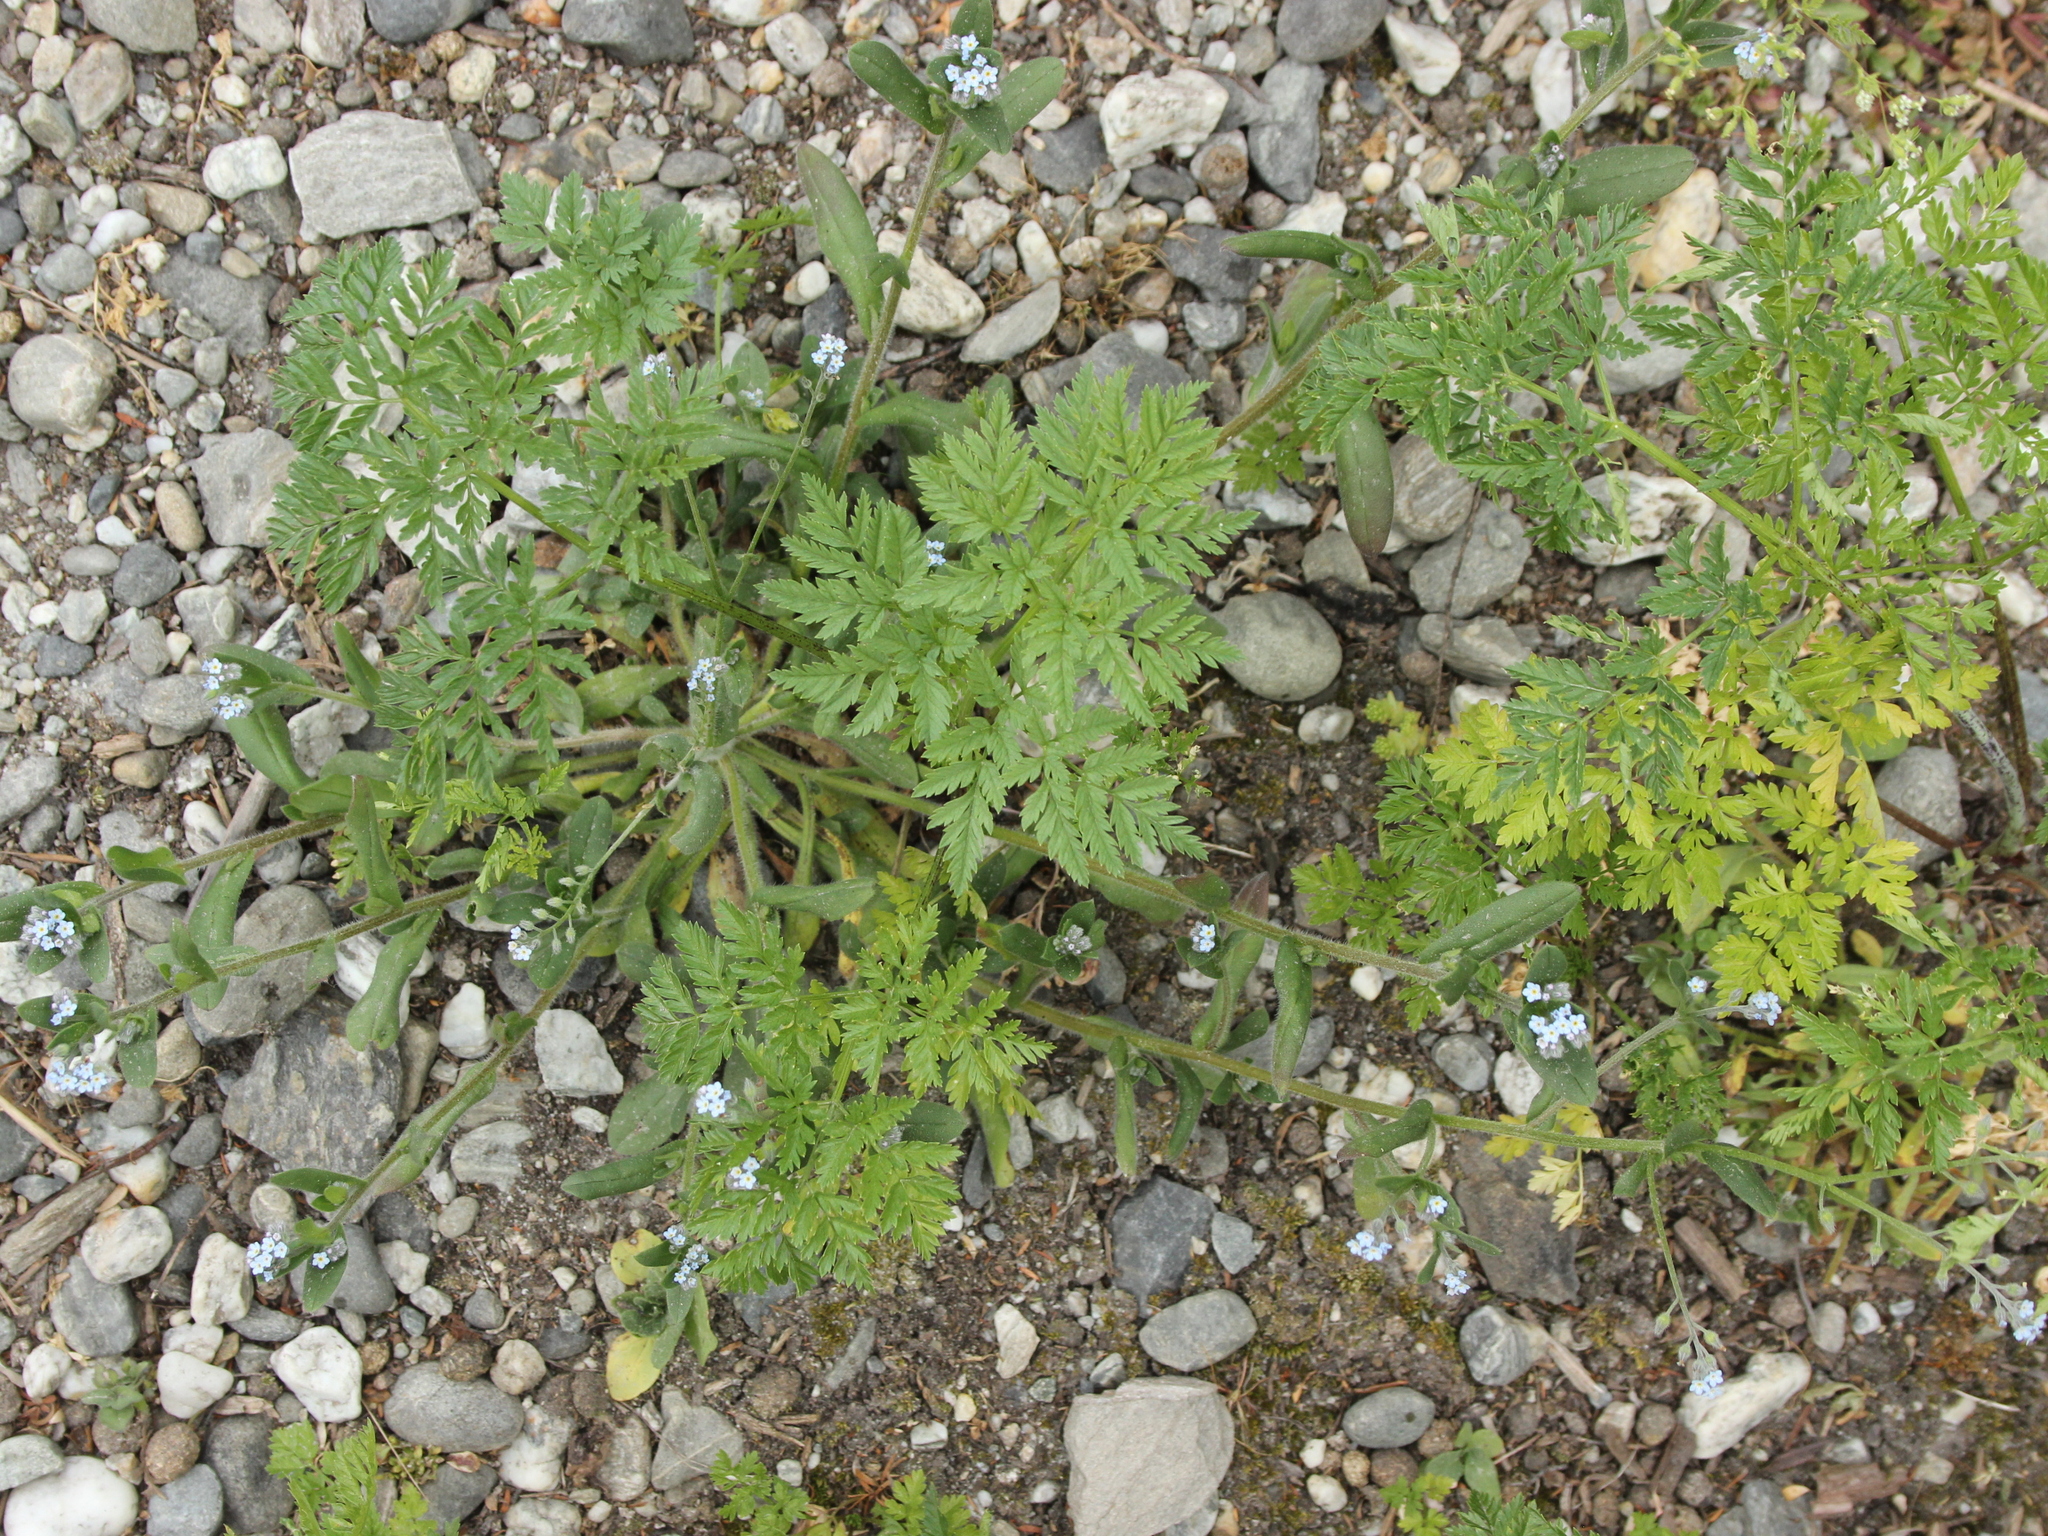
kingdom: Plantae
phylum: Tracheophyta
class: Magnoliopsida
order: Boraginales
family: Boraginaceae
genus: Myosotis
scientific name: Myosotis arvensis
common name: Field forget-me-not
